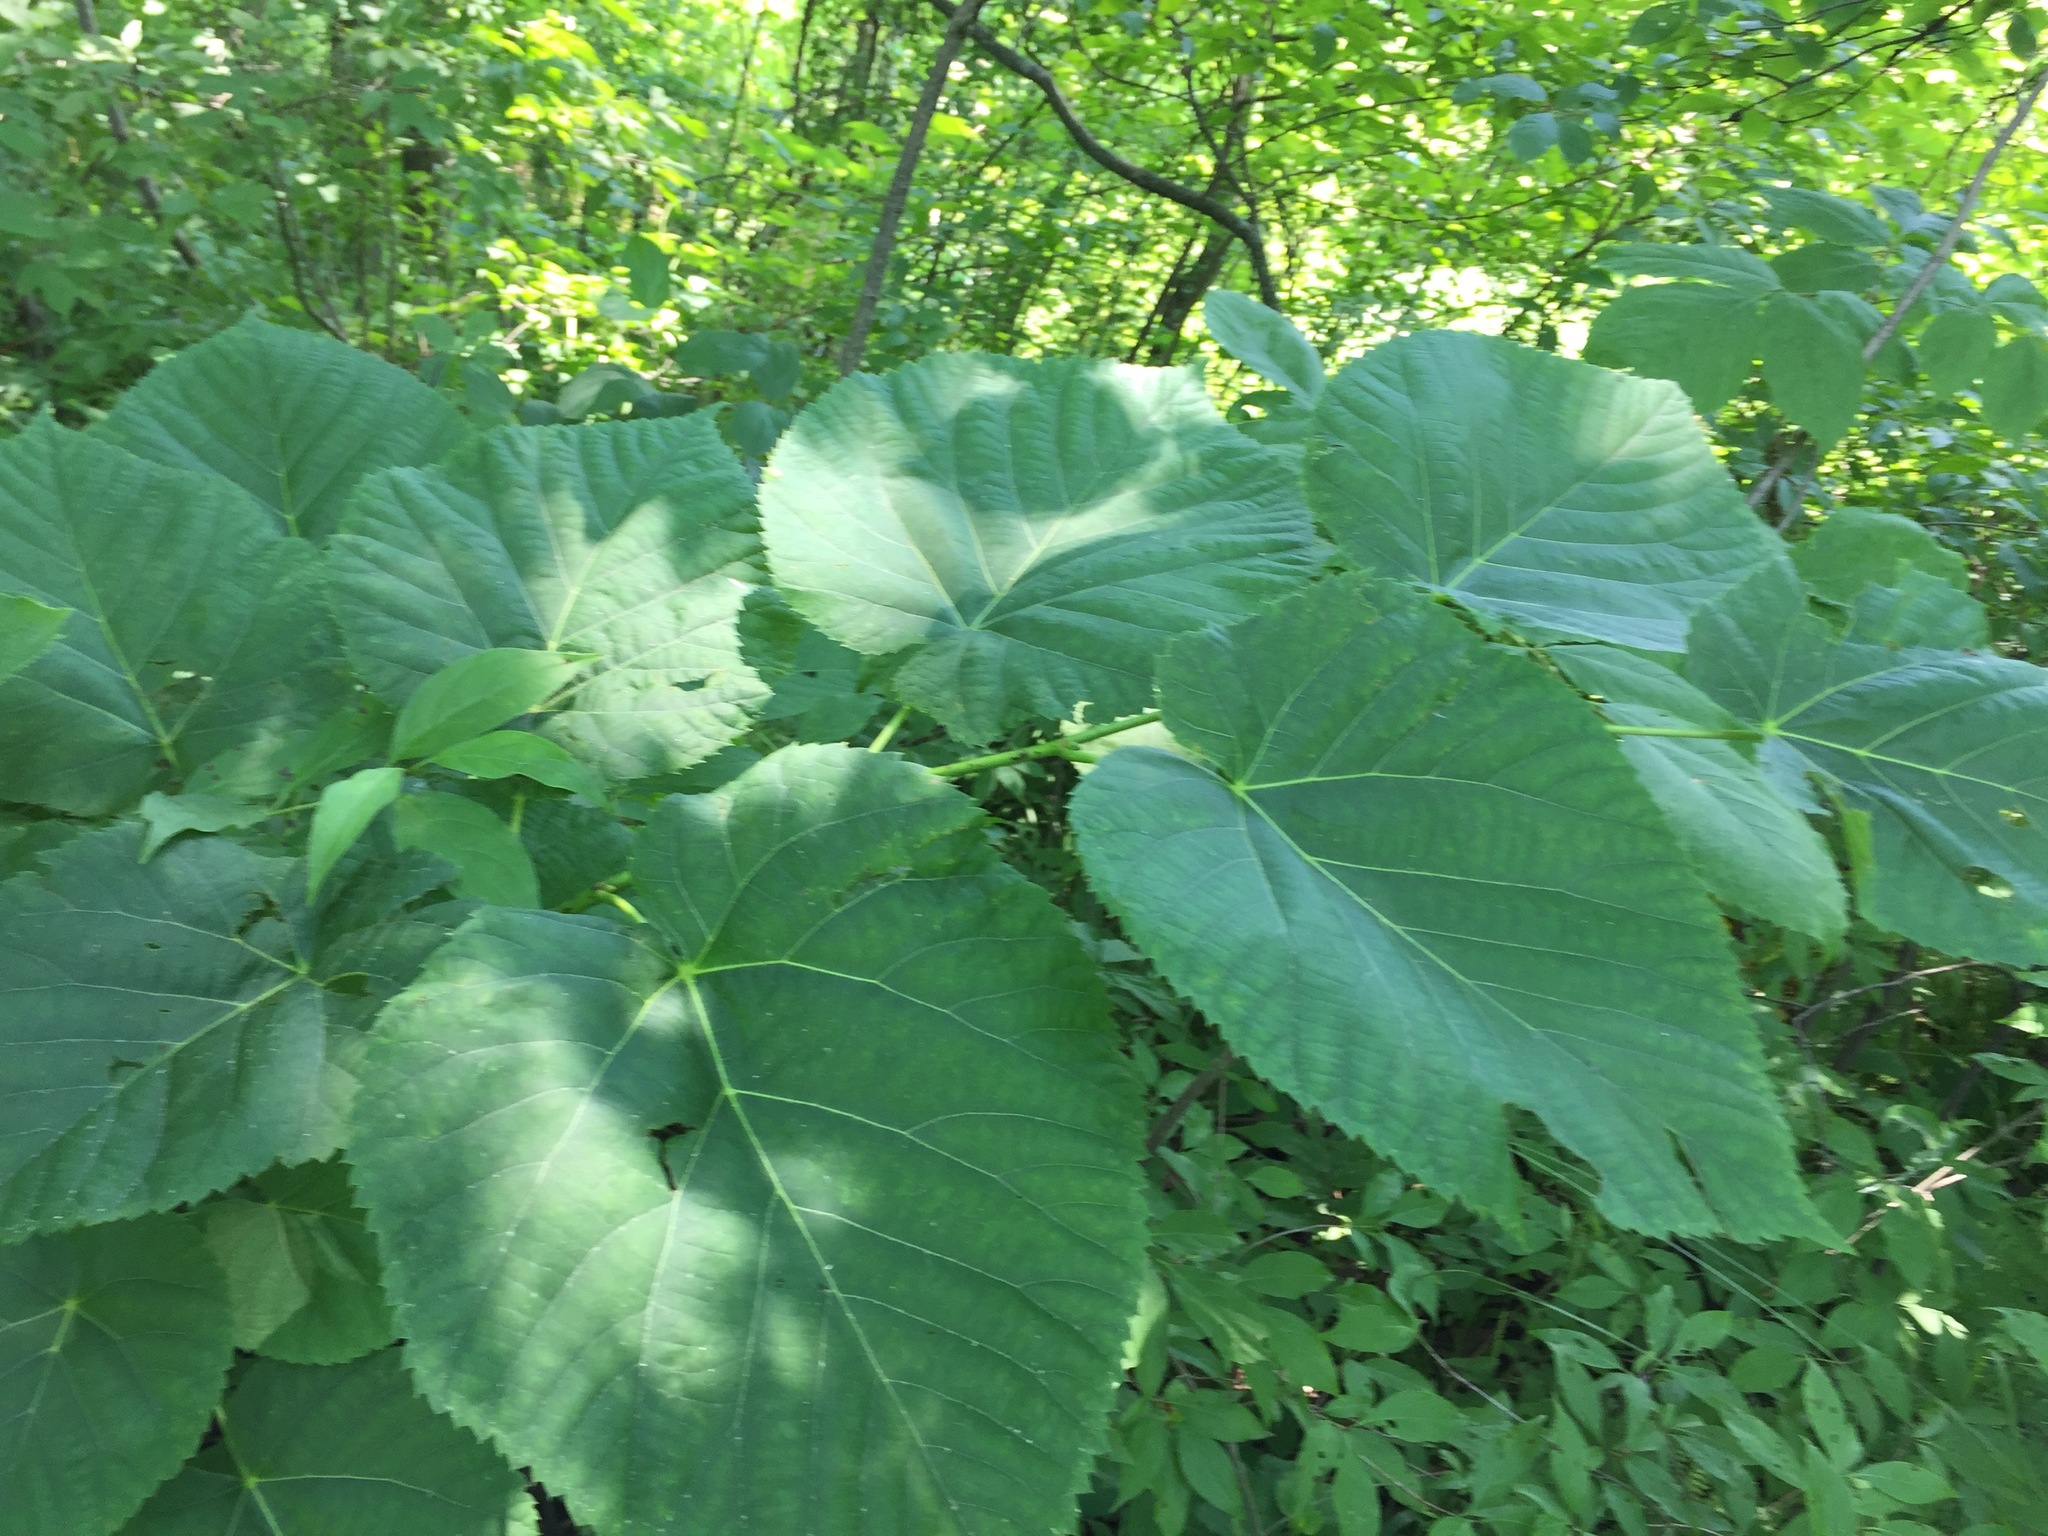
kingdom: Plantae
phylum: Tracheophyta
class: Magnoliopsida
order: Malvales
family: Malvaceae
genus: Tilia
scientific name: Tilia americana
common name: Basswood
